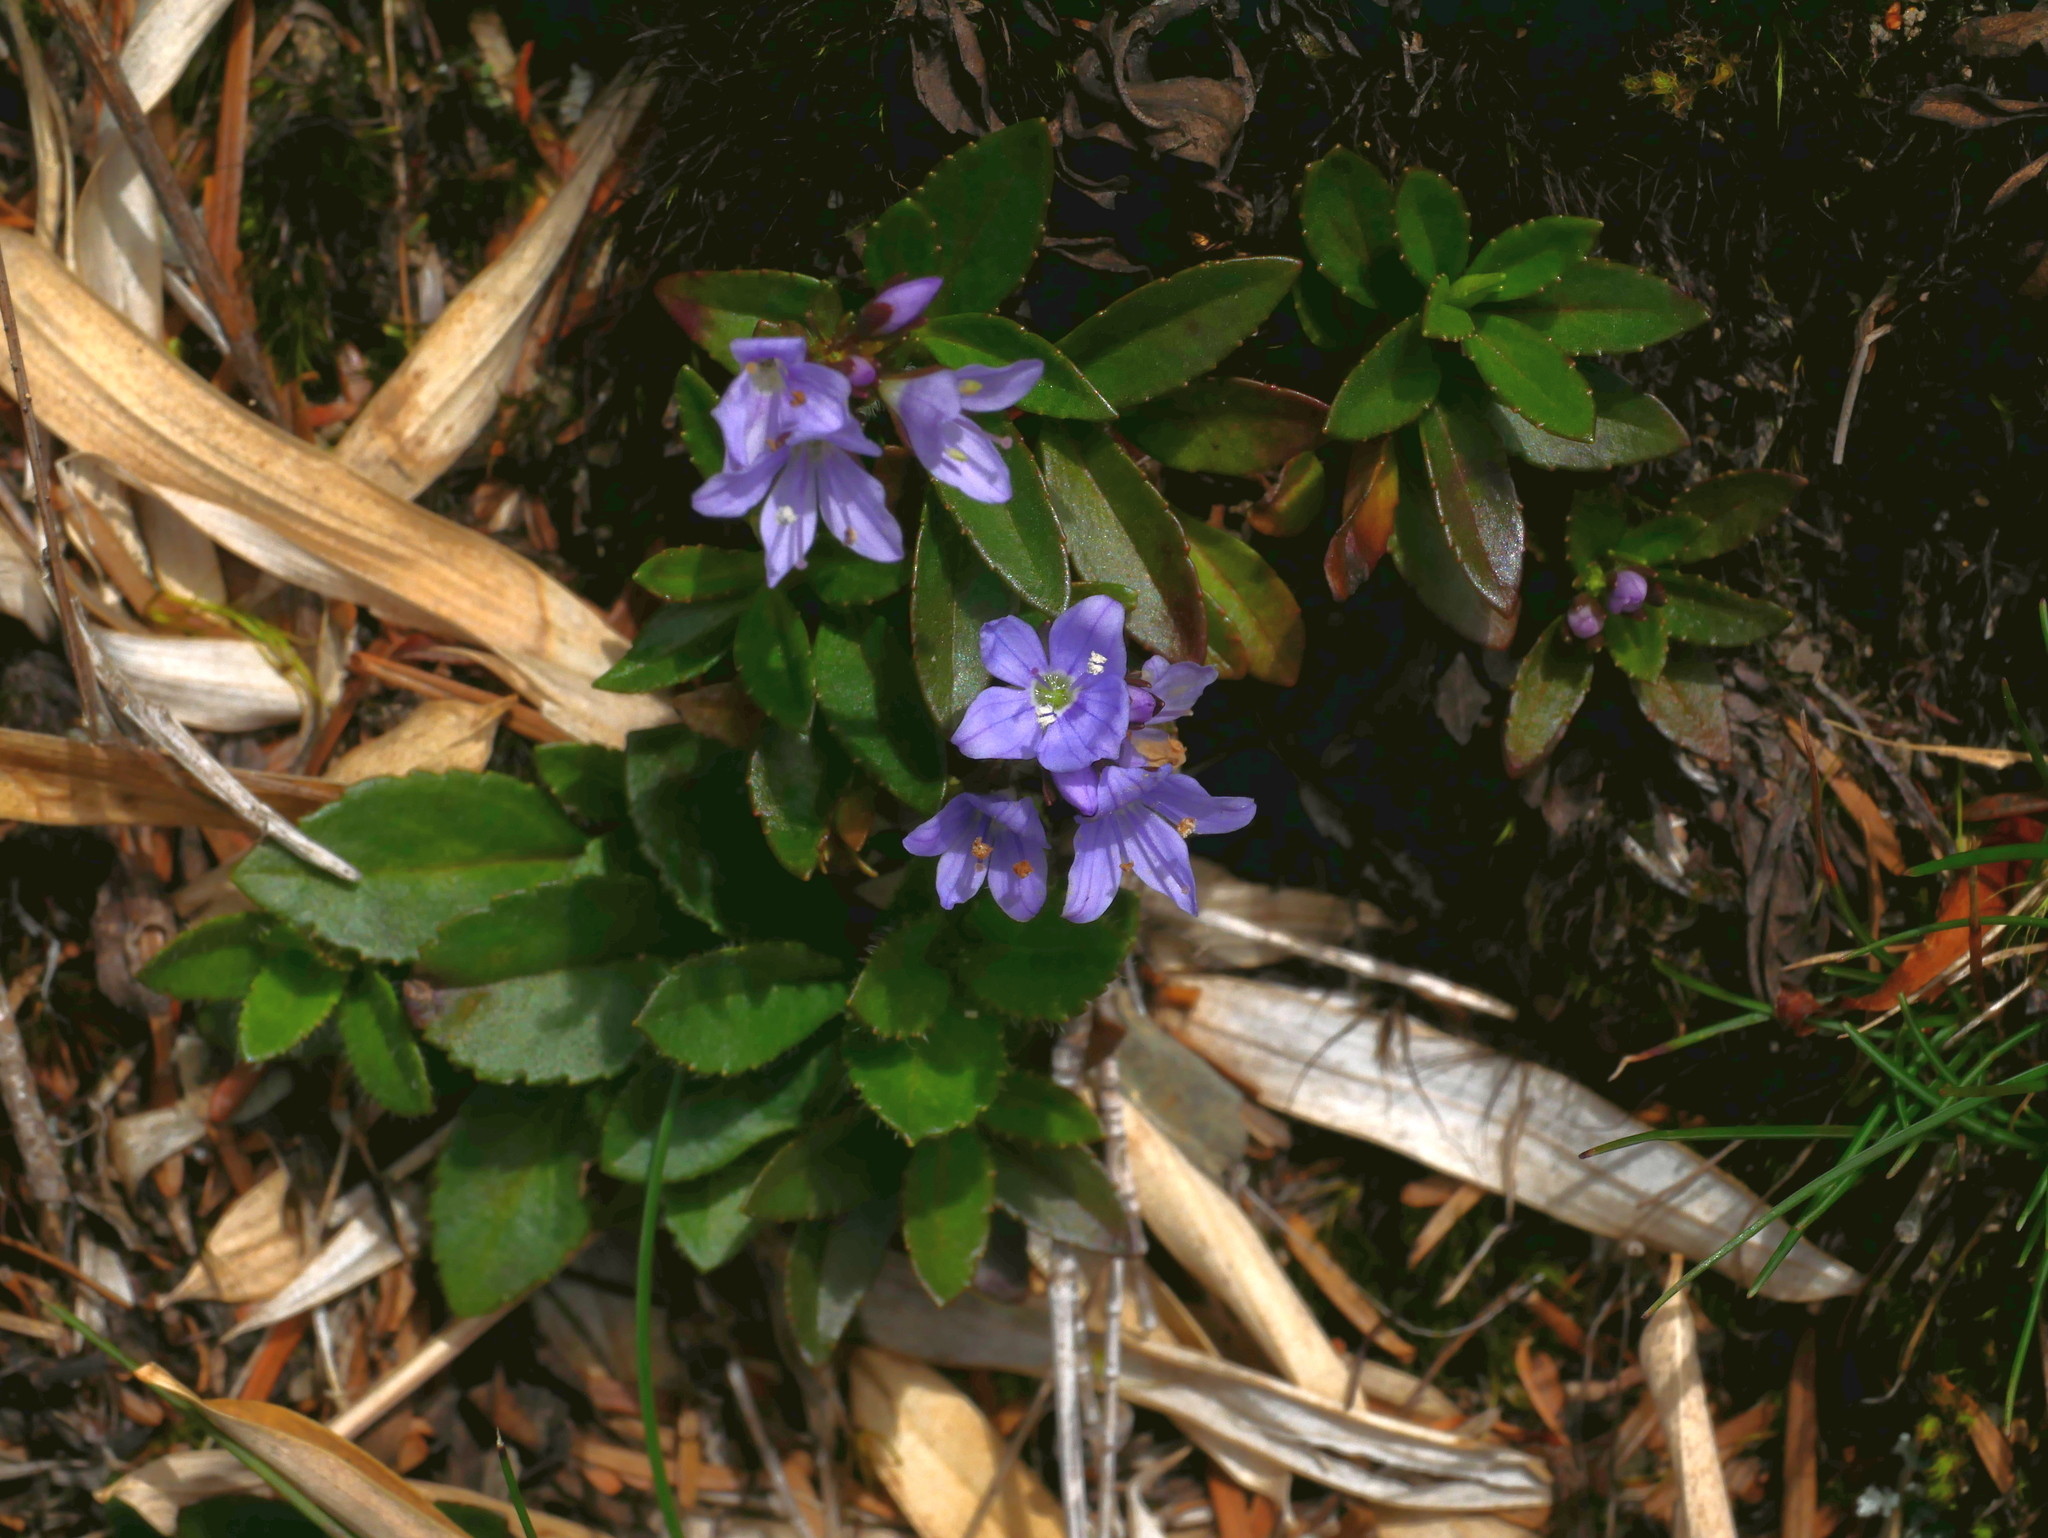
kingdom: Plantae
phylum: Tracheophyta
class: Magnoliopsida
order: Lamiales
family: Plantaginaceae
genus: Veronica
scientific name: Veronica morrisonicola
